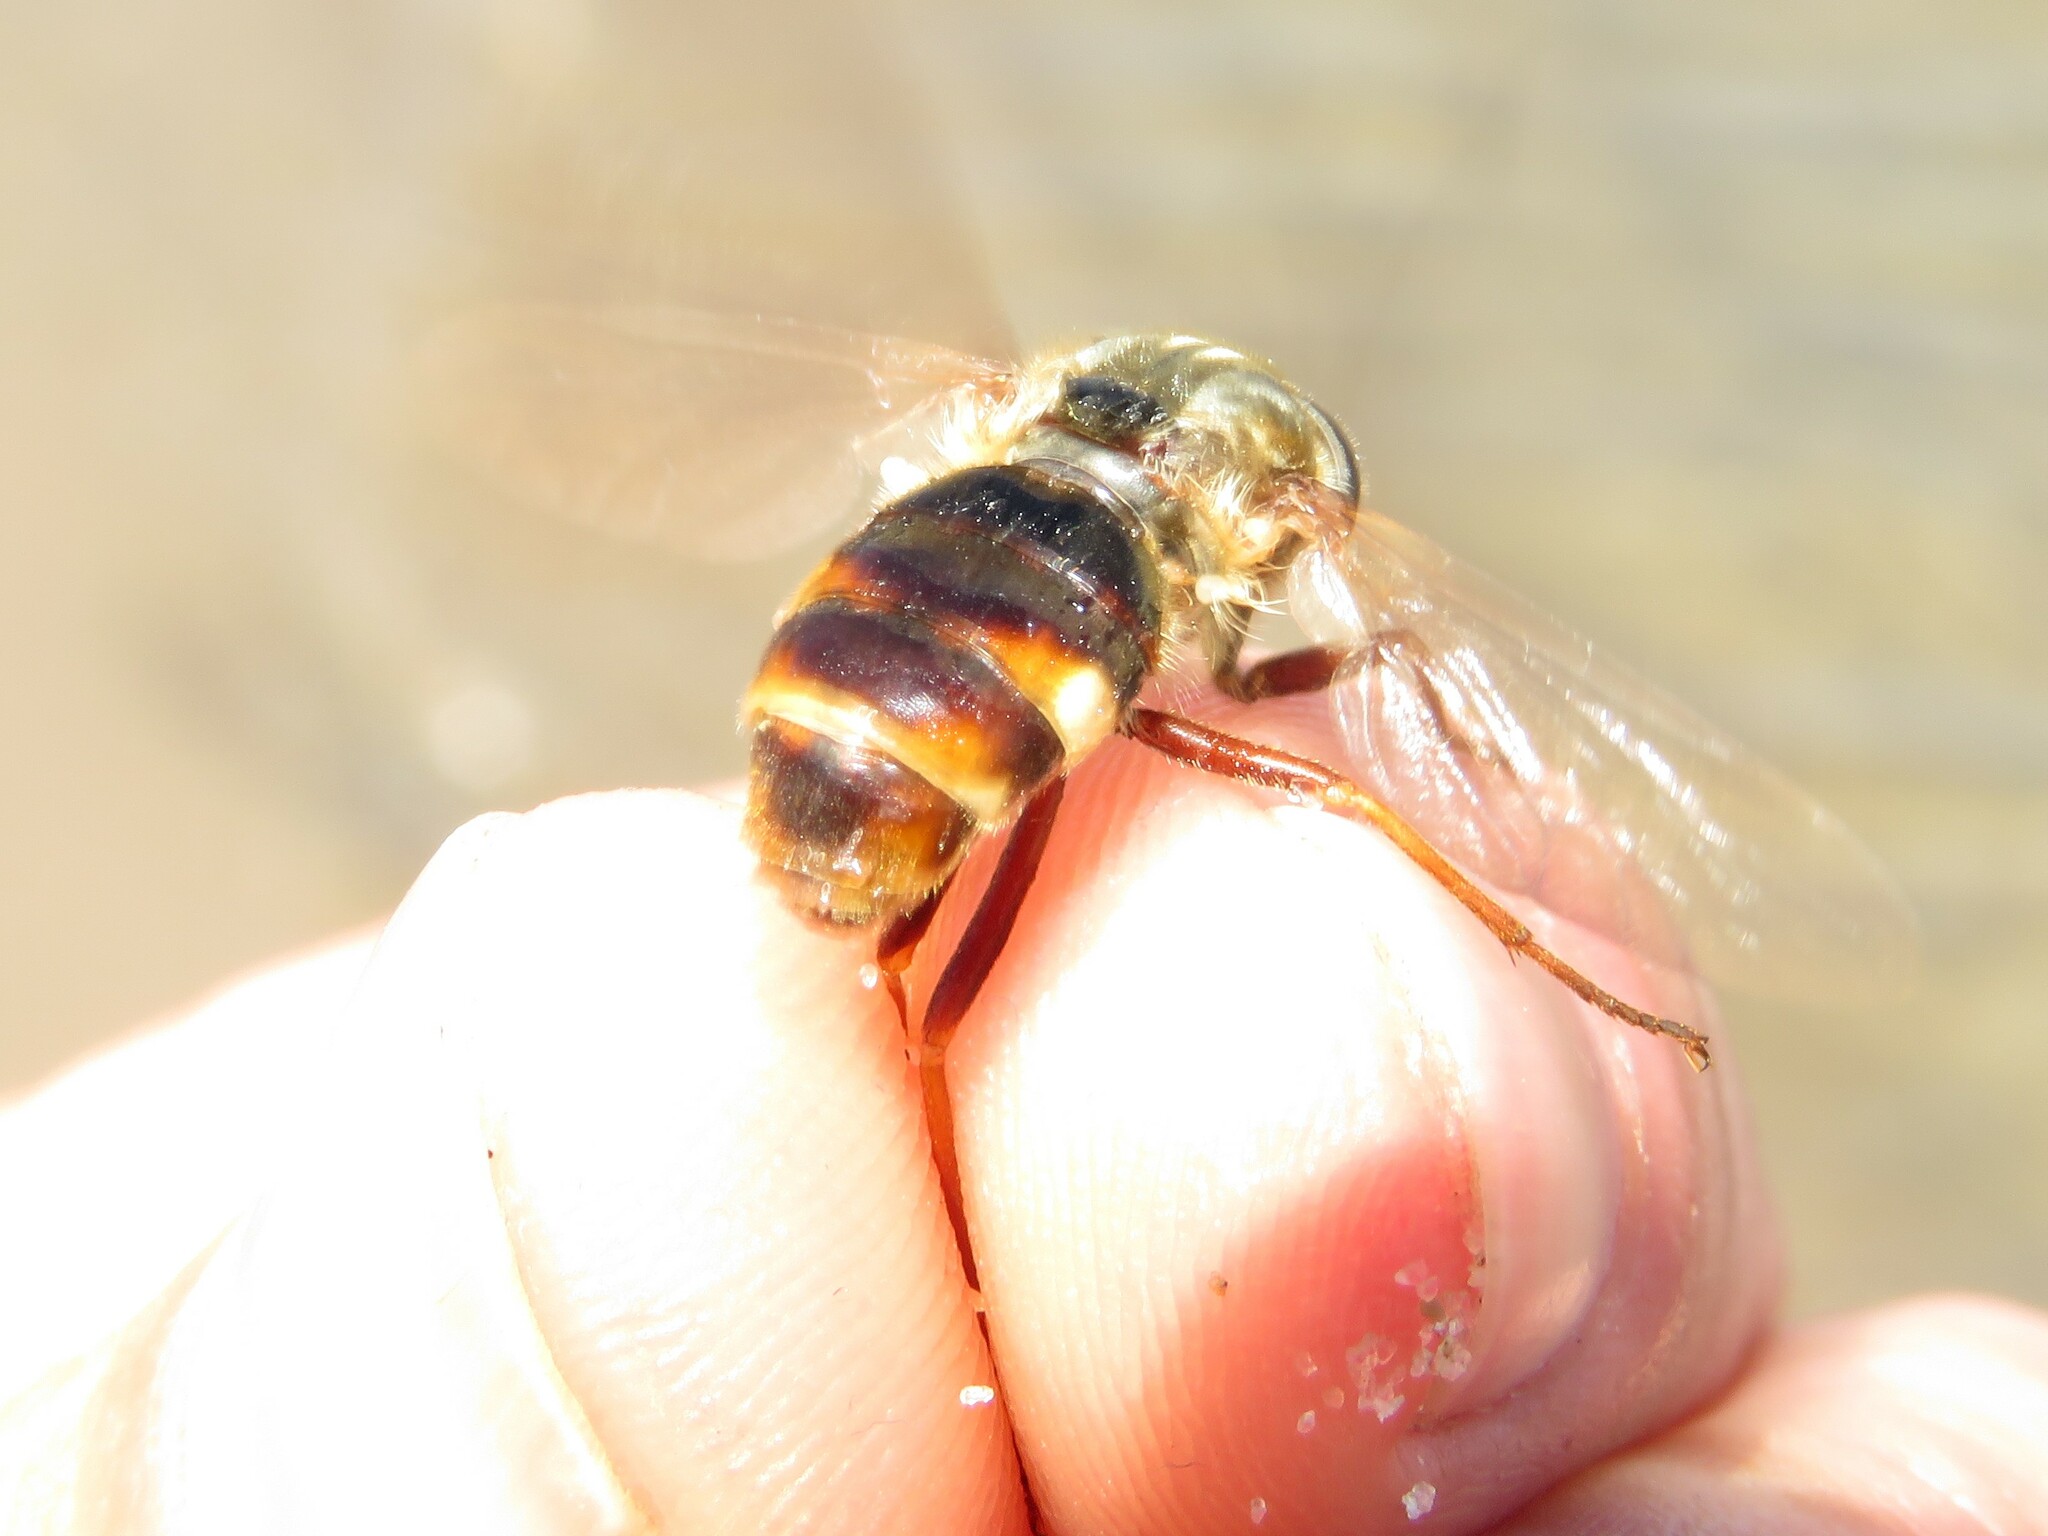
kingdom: Animalia
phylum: Arthropoda
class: Insecta
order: Diptera
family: Xylophagidae
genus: Coenomyia
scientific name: Coenomyia ferruginea
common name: Stink fly
